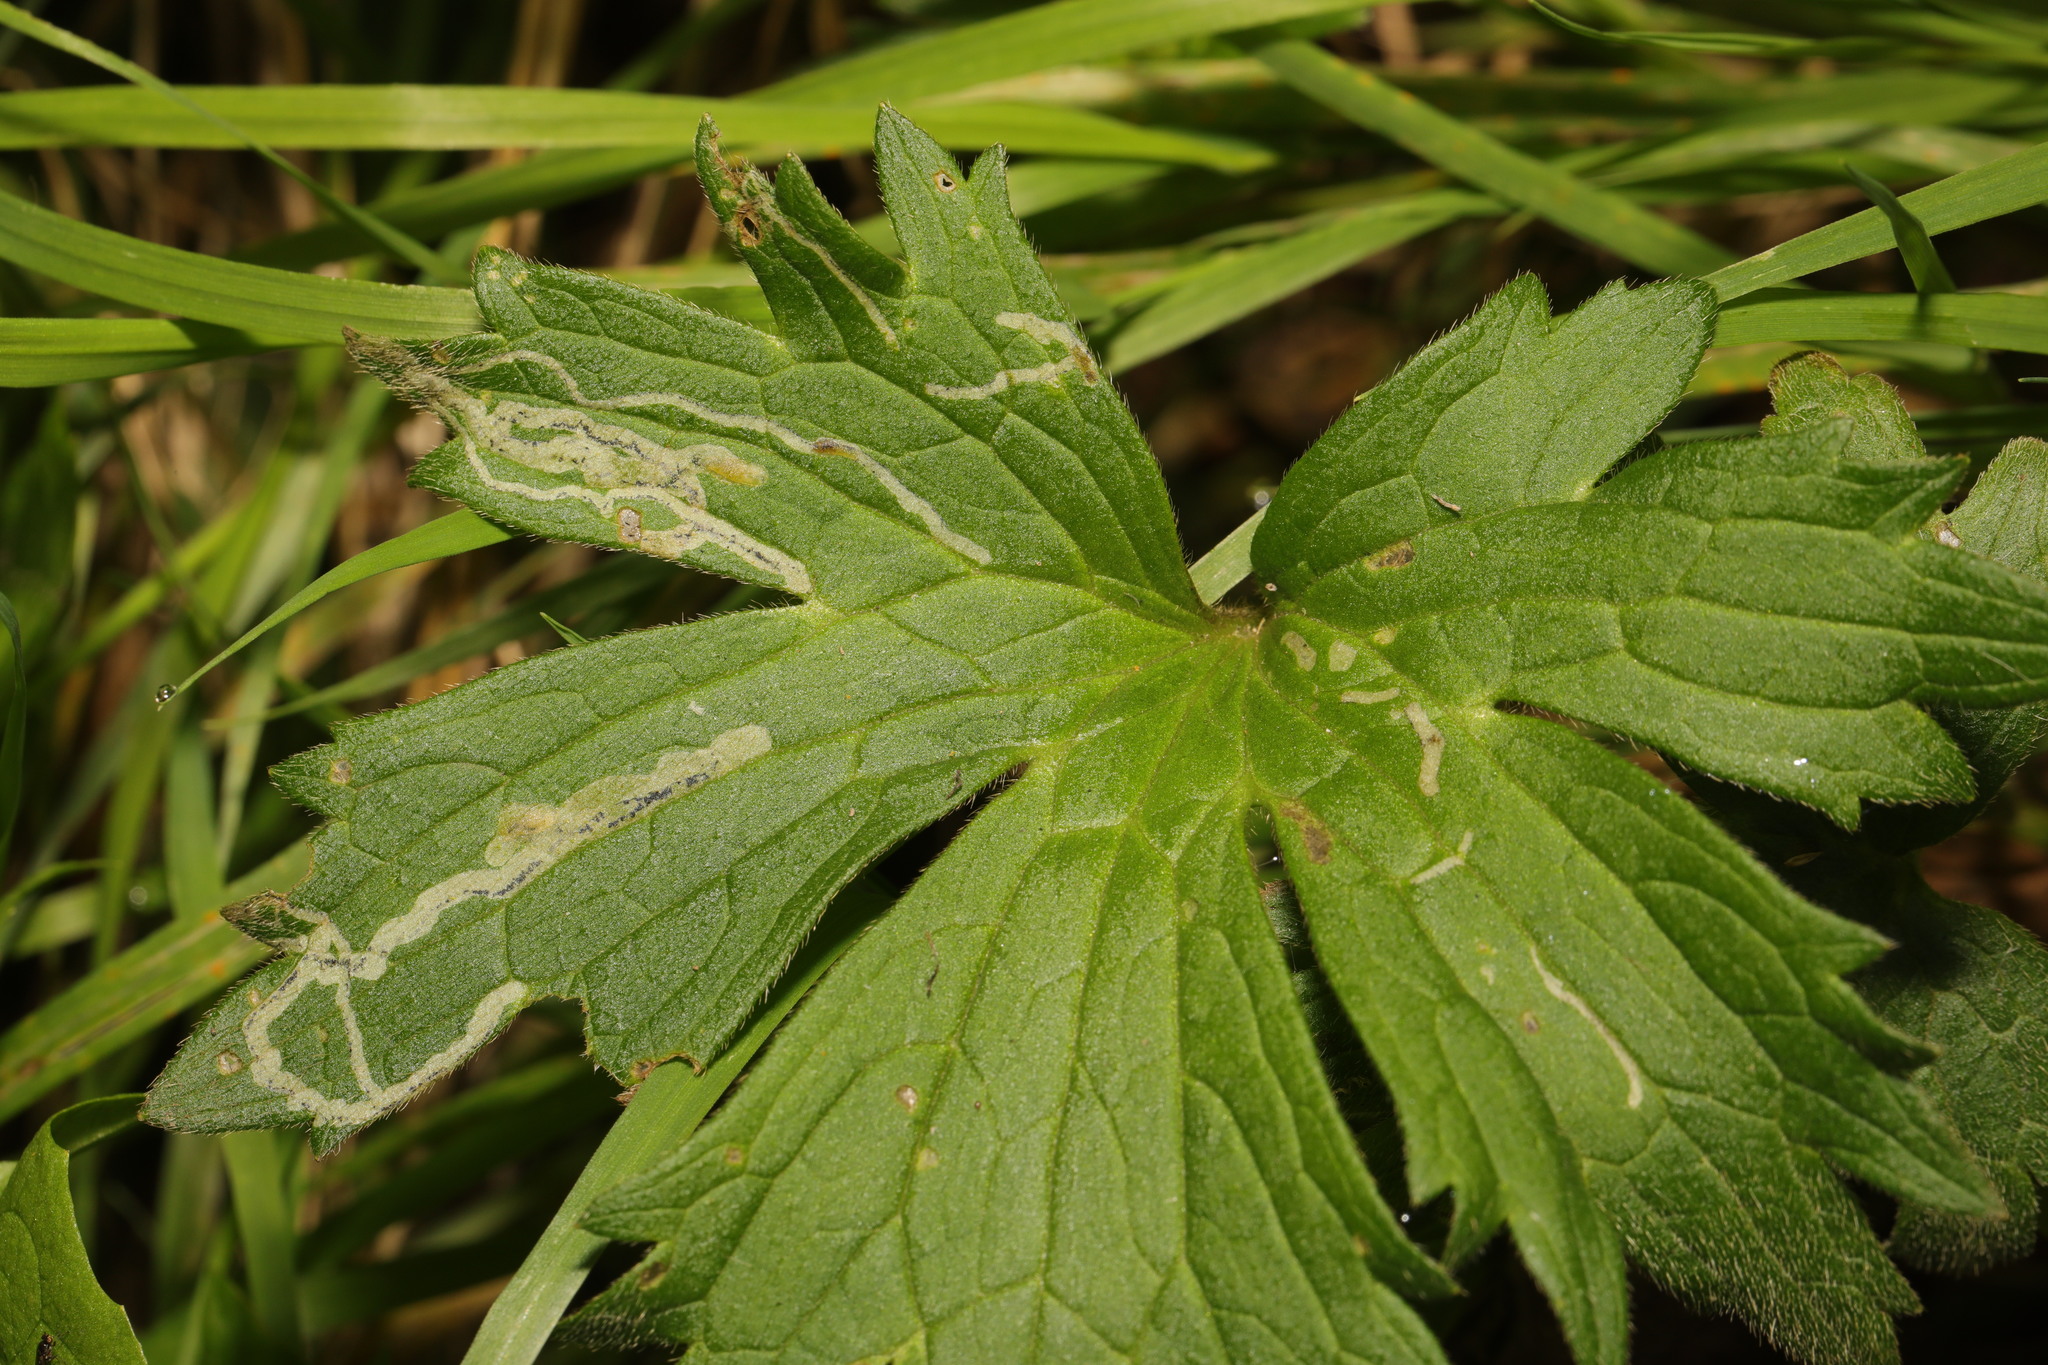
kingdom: Animalia
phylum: Arthropoda
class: Insecta
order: Diptera
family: Agromyzidae
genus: Phytomyza
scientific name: Phytomyza ranunculi
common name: Leaf-miner fly
